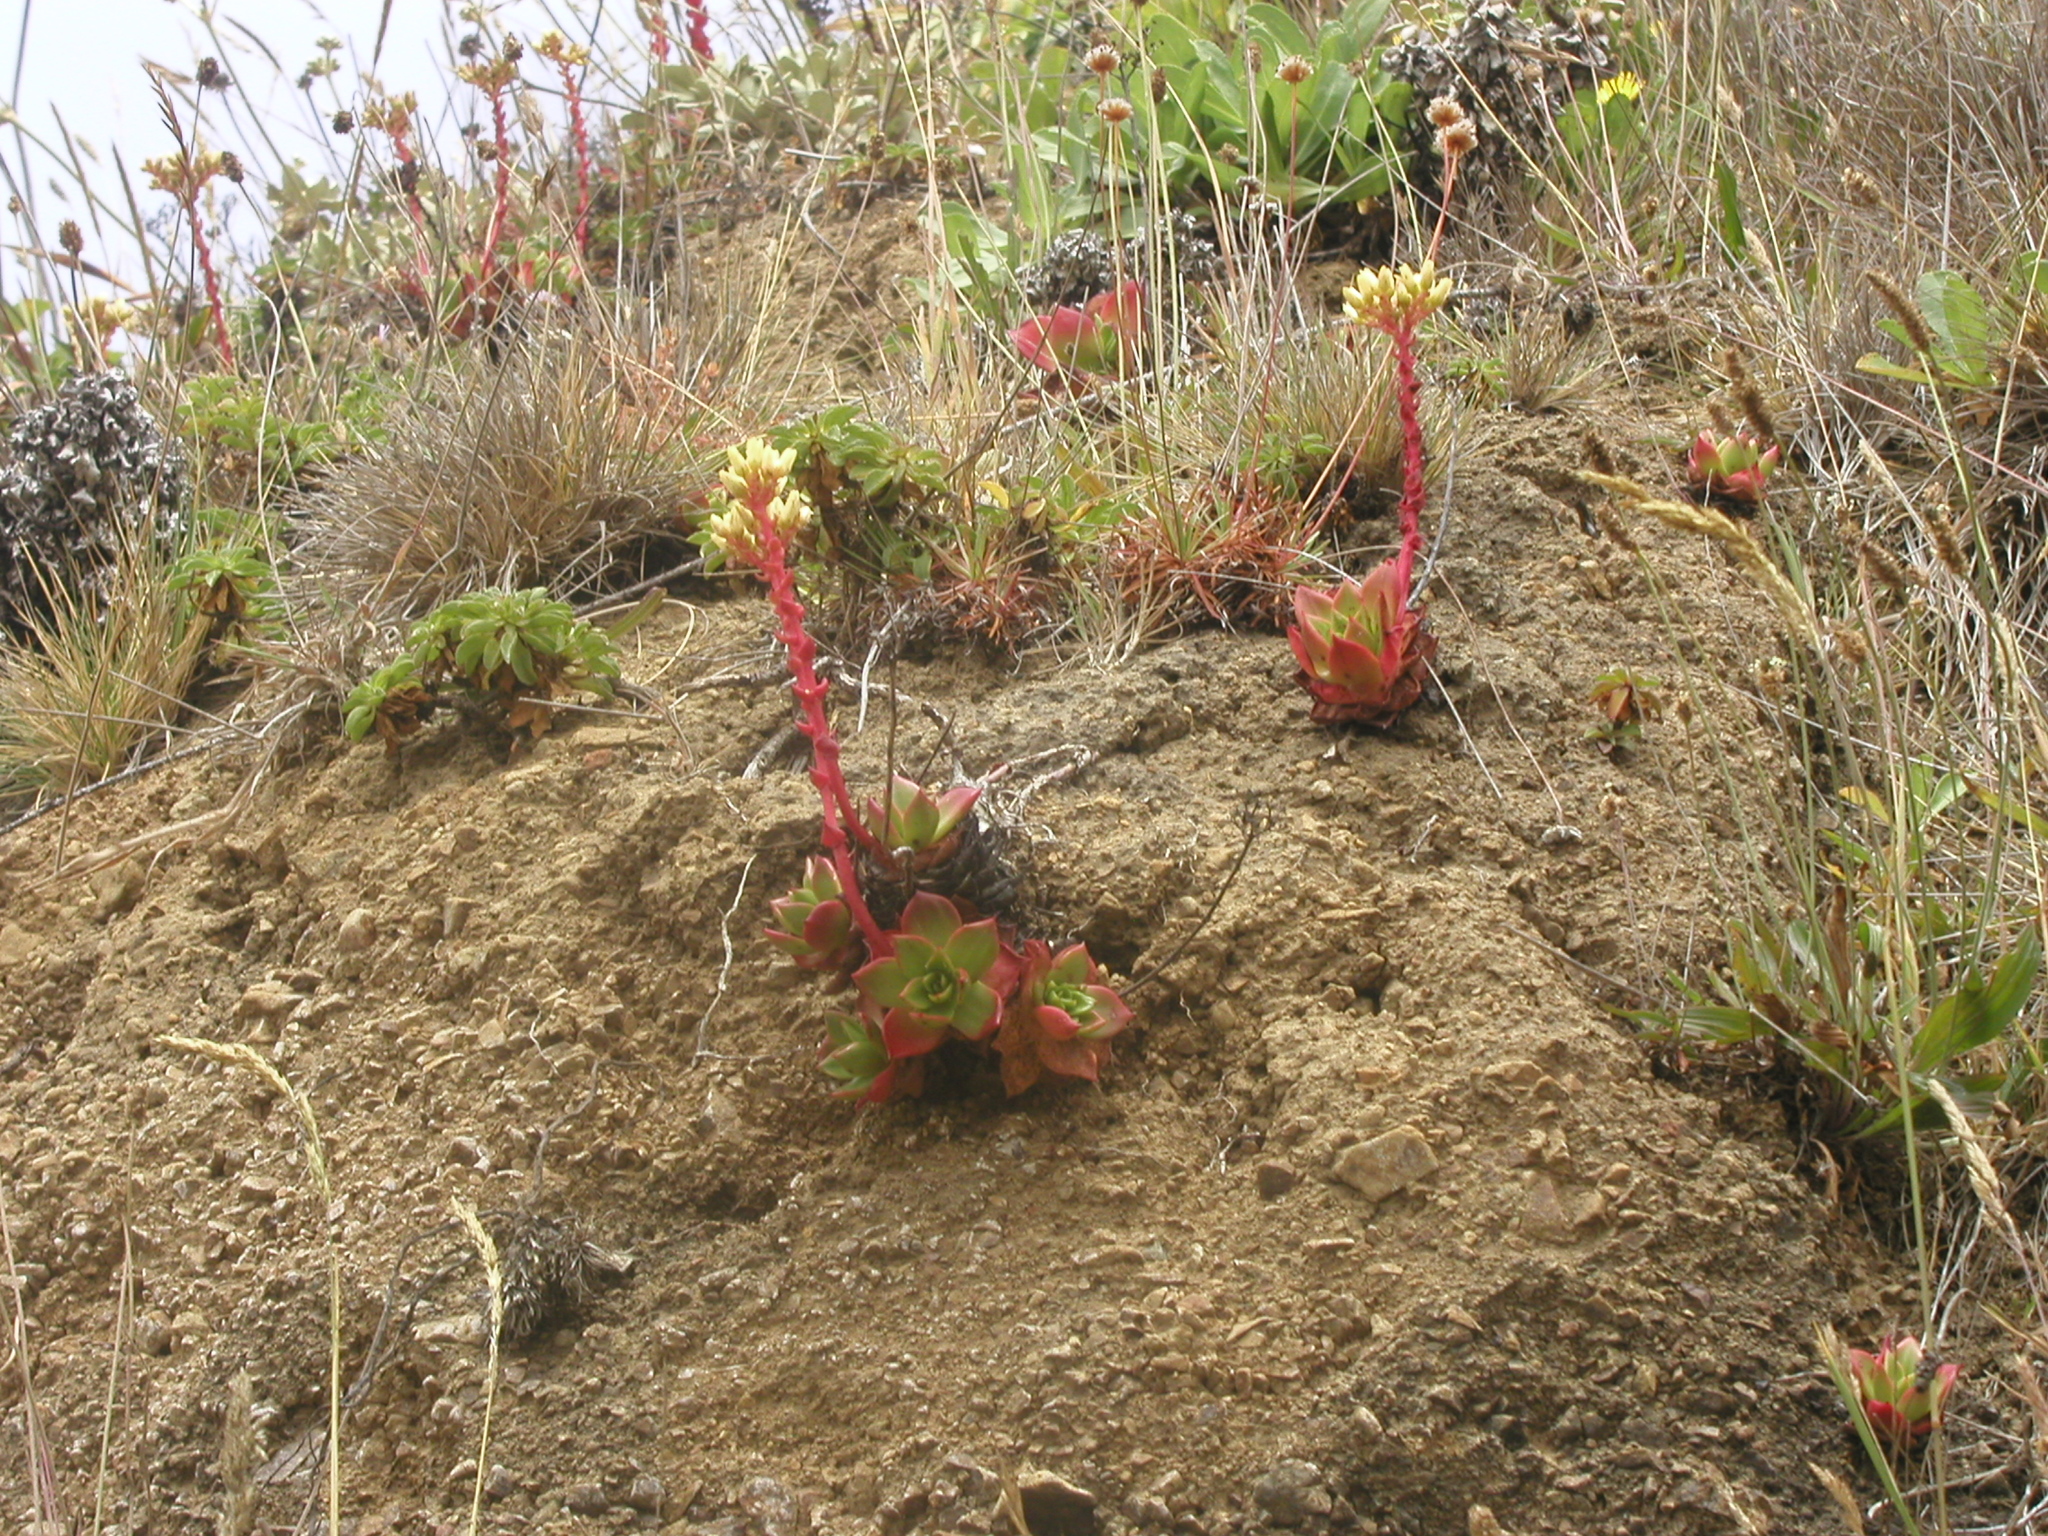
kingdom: Plantae
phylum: Tracheophyta
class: Magnoliopsida
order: Saxifragales
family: Crassulaceae
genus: Dudleya
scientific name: Dudleya farinosa
